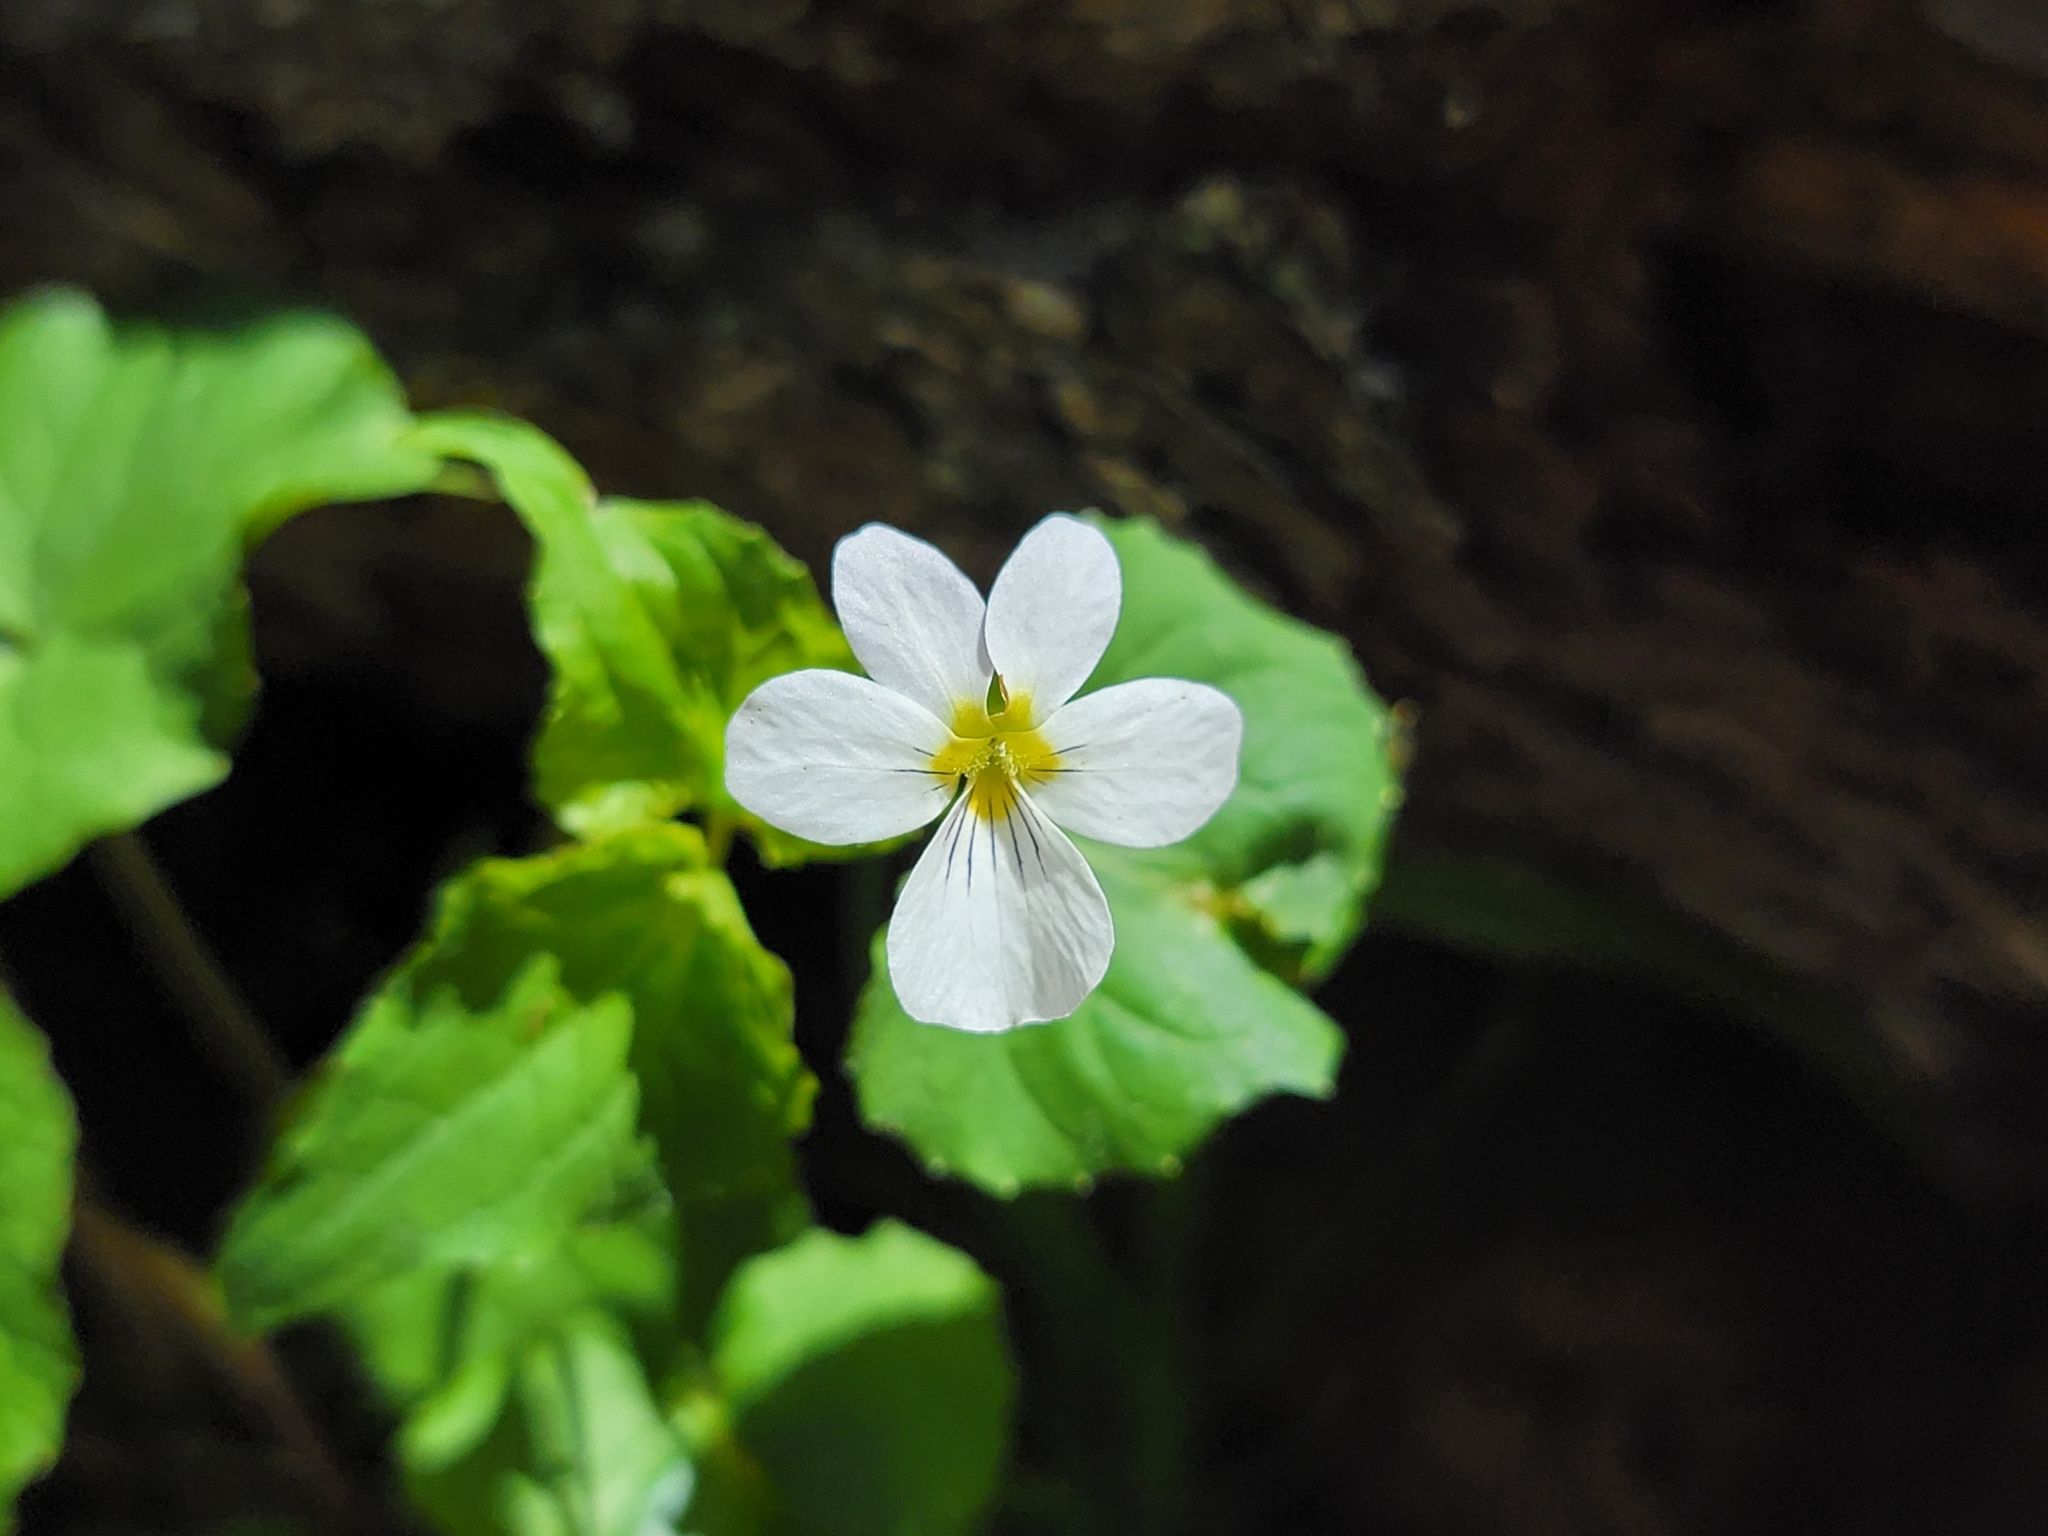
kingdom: Plantae
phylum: Tracheophyta
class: Magnoliopsida
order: Malpighiales
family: Violaceae
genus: Viola
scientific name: Viola canadensis
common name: Canada violet
